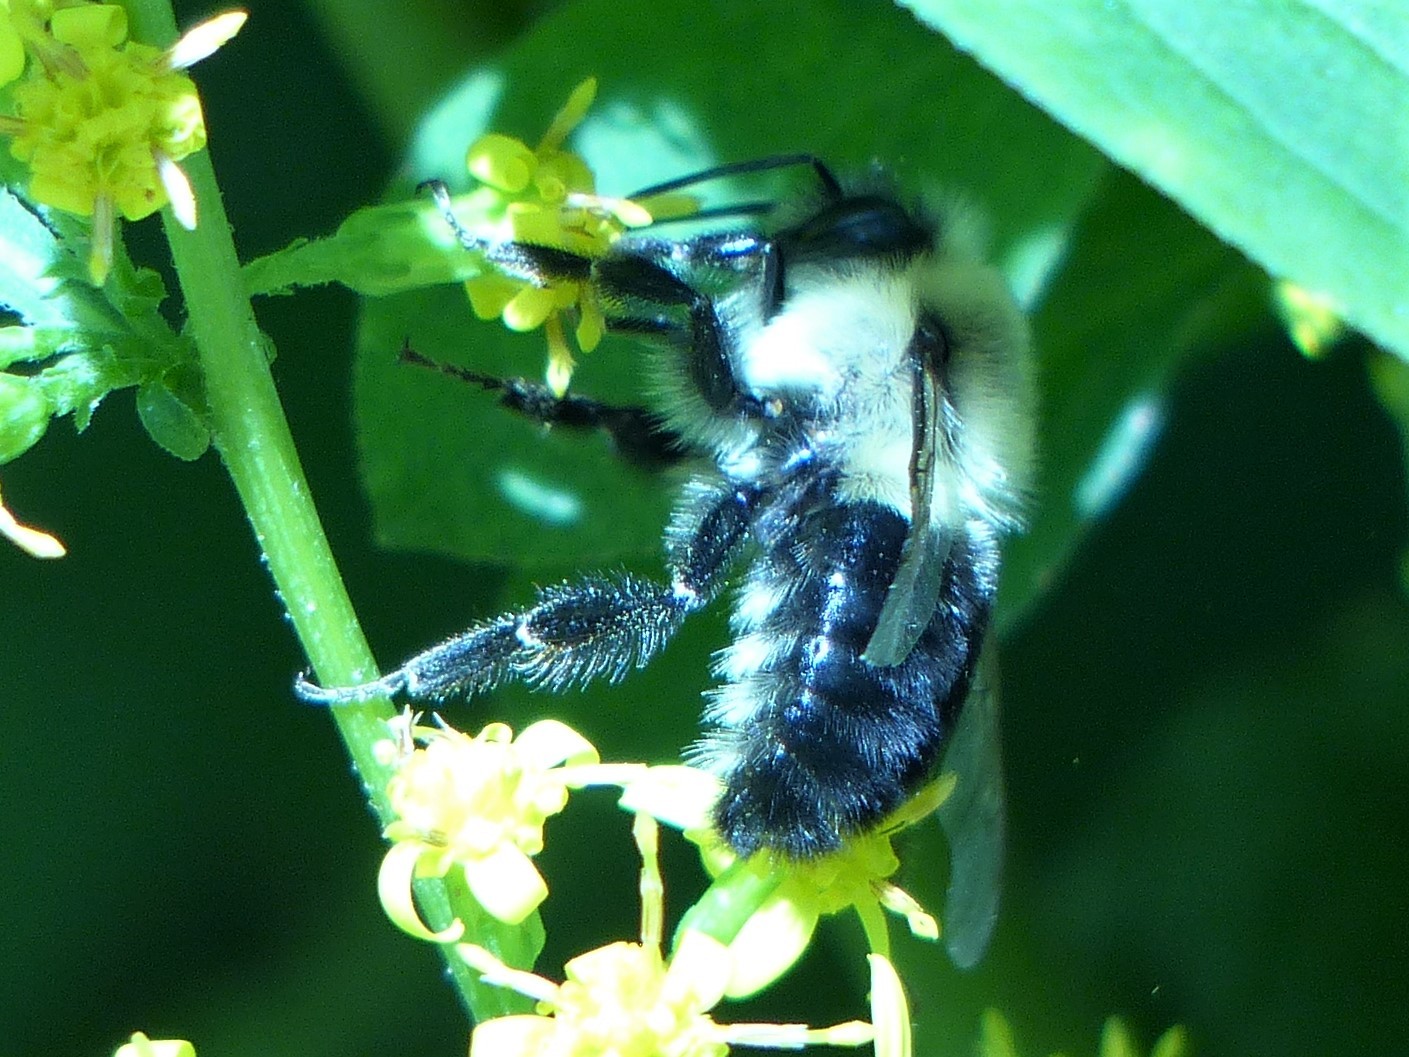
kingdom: Animalia
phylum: Arthropoda
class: Insecta
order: Hymenoptera
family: Apidae
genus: Bombus
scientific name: Bombus impatiens
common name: Common eastern bumble bee
